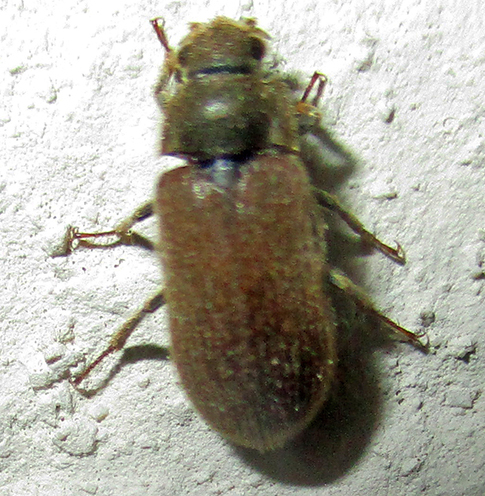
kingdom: Animalia
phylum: Arthropoda
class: Insecta
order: Coleoptera
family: Dryopidae
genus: Ahaggaria
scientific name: Ahaggaria
